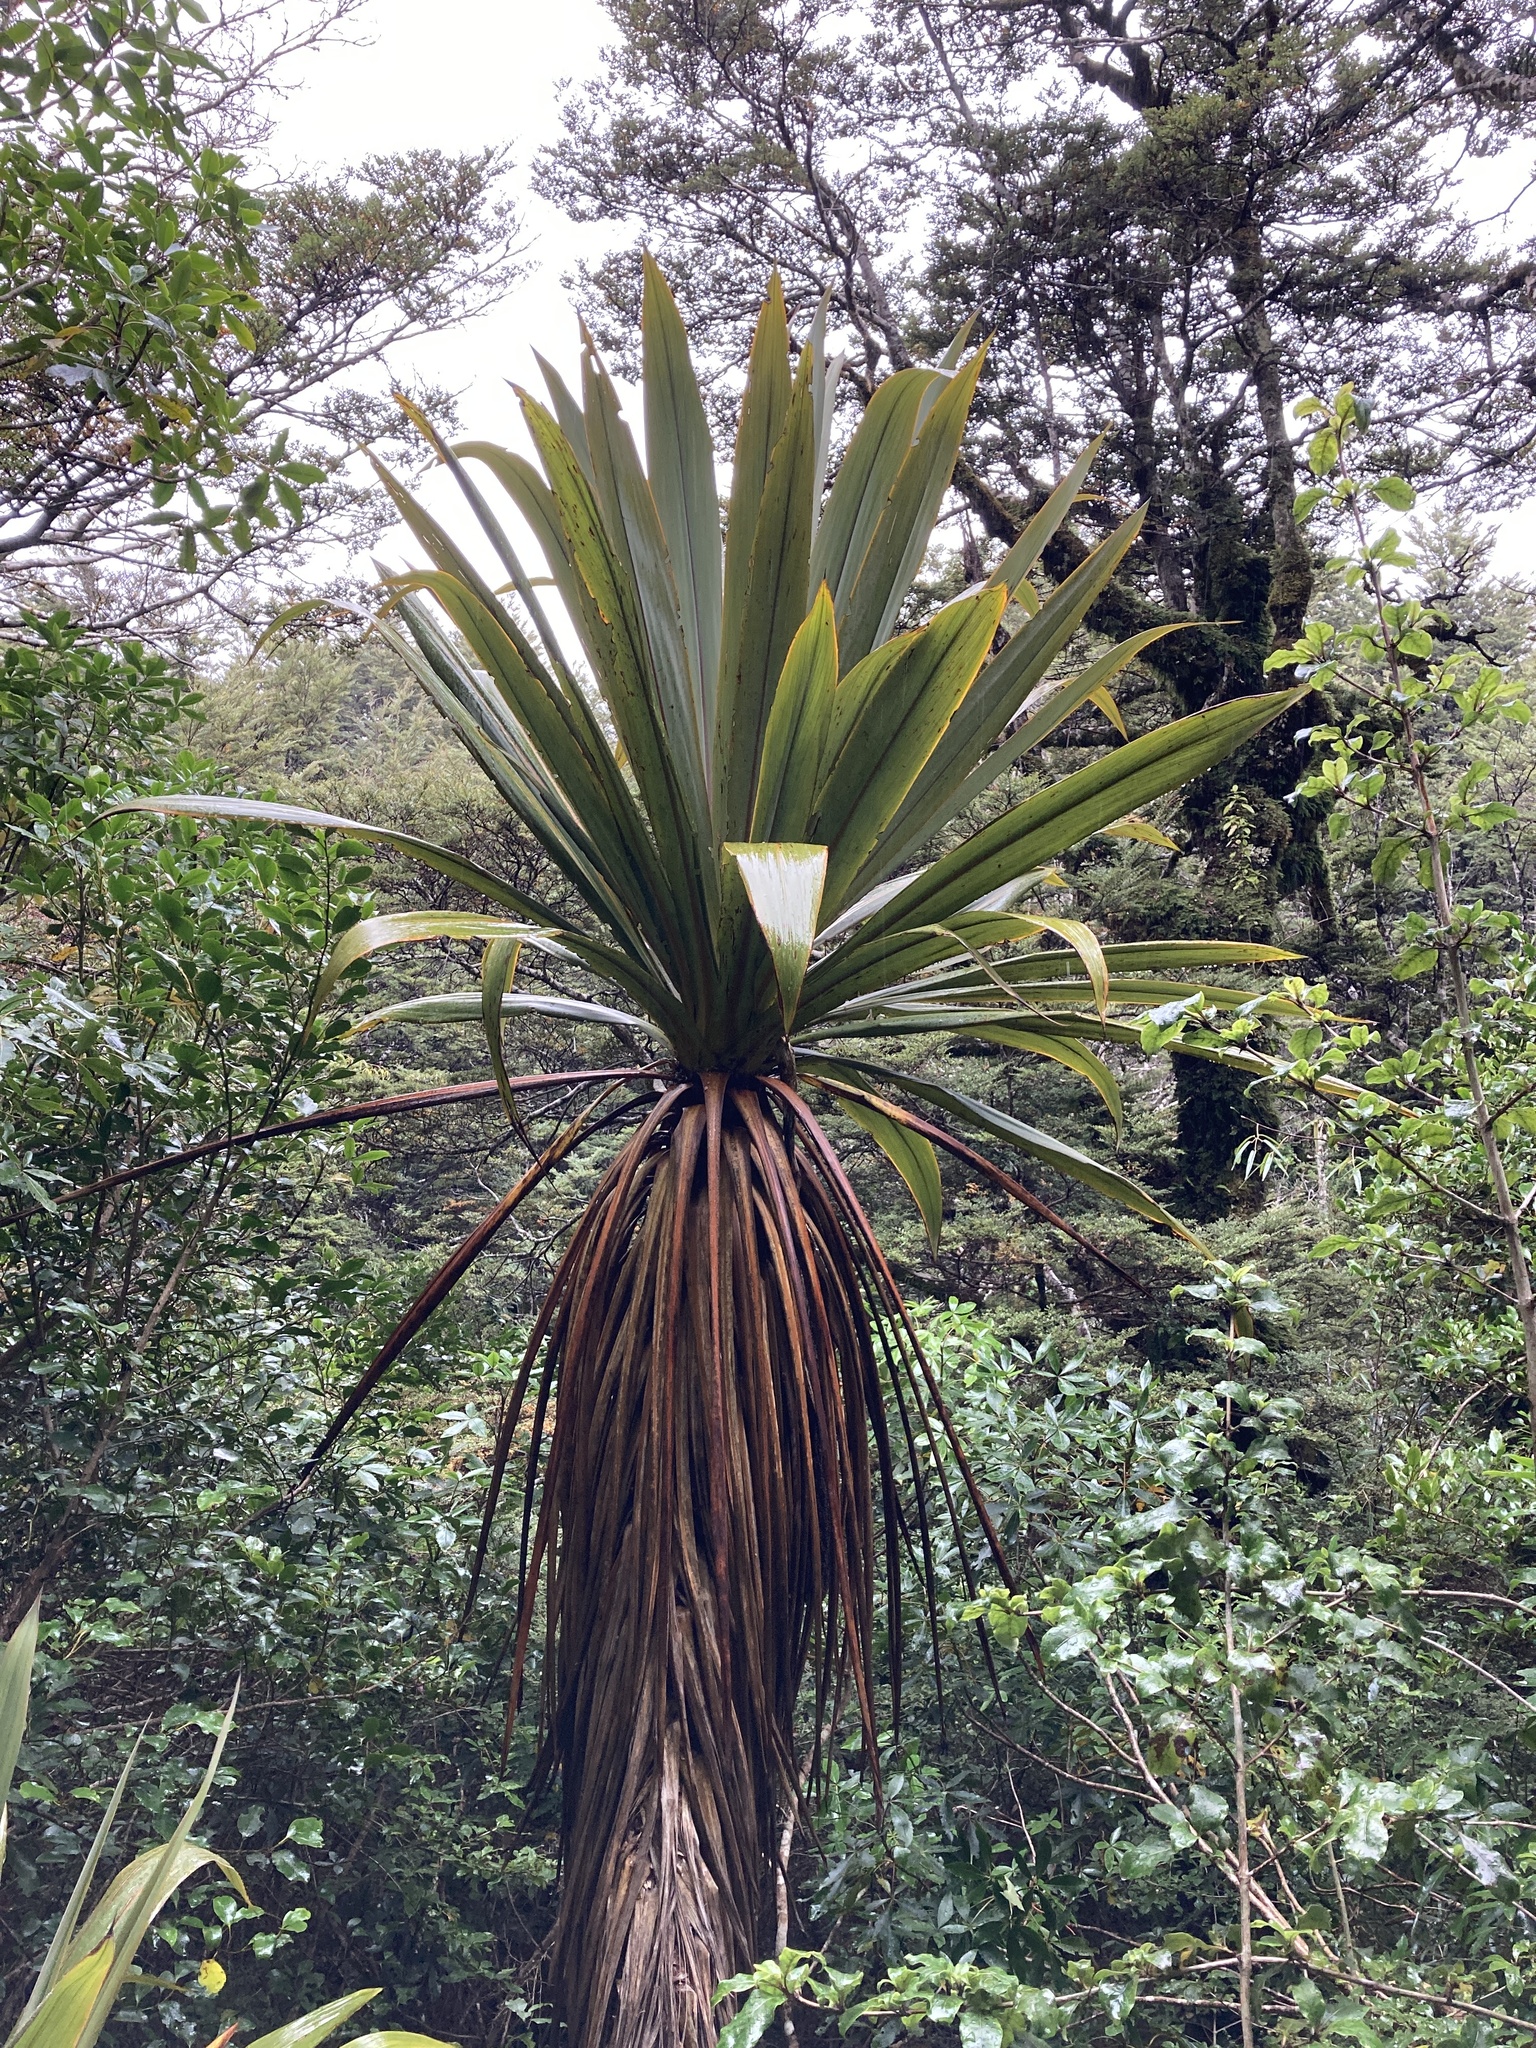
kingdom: Plantae
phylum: Tracheophyta
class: Liliopsida
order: Asparagales
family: Asparagaceae
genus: Cordyline
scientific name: Cordyline indivisa
